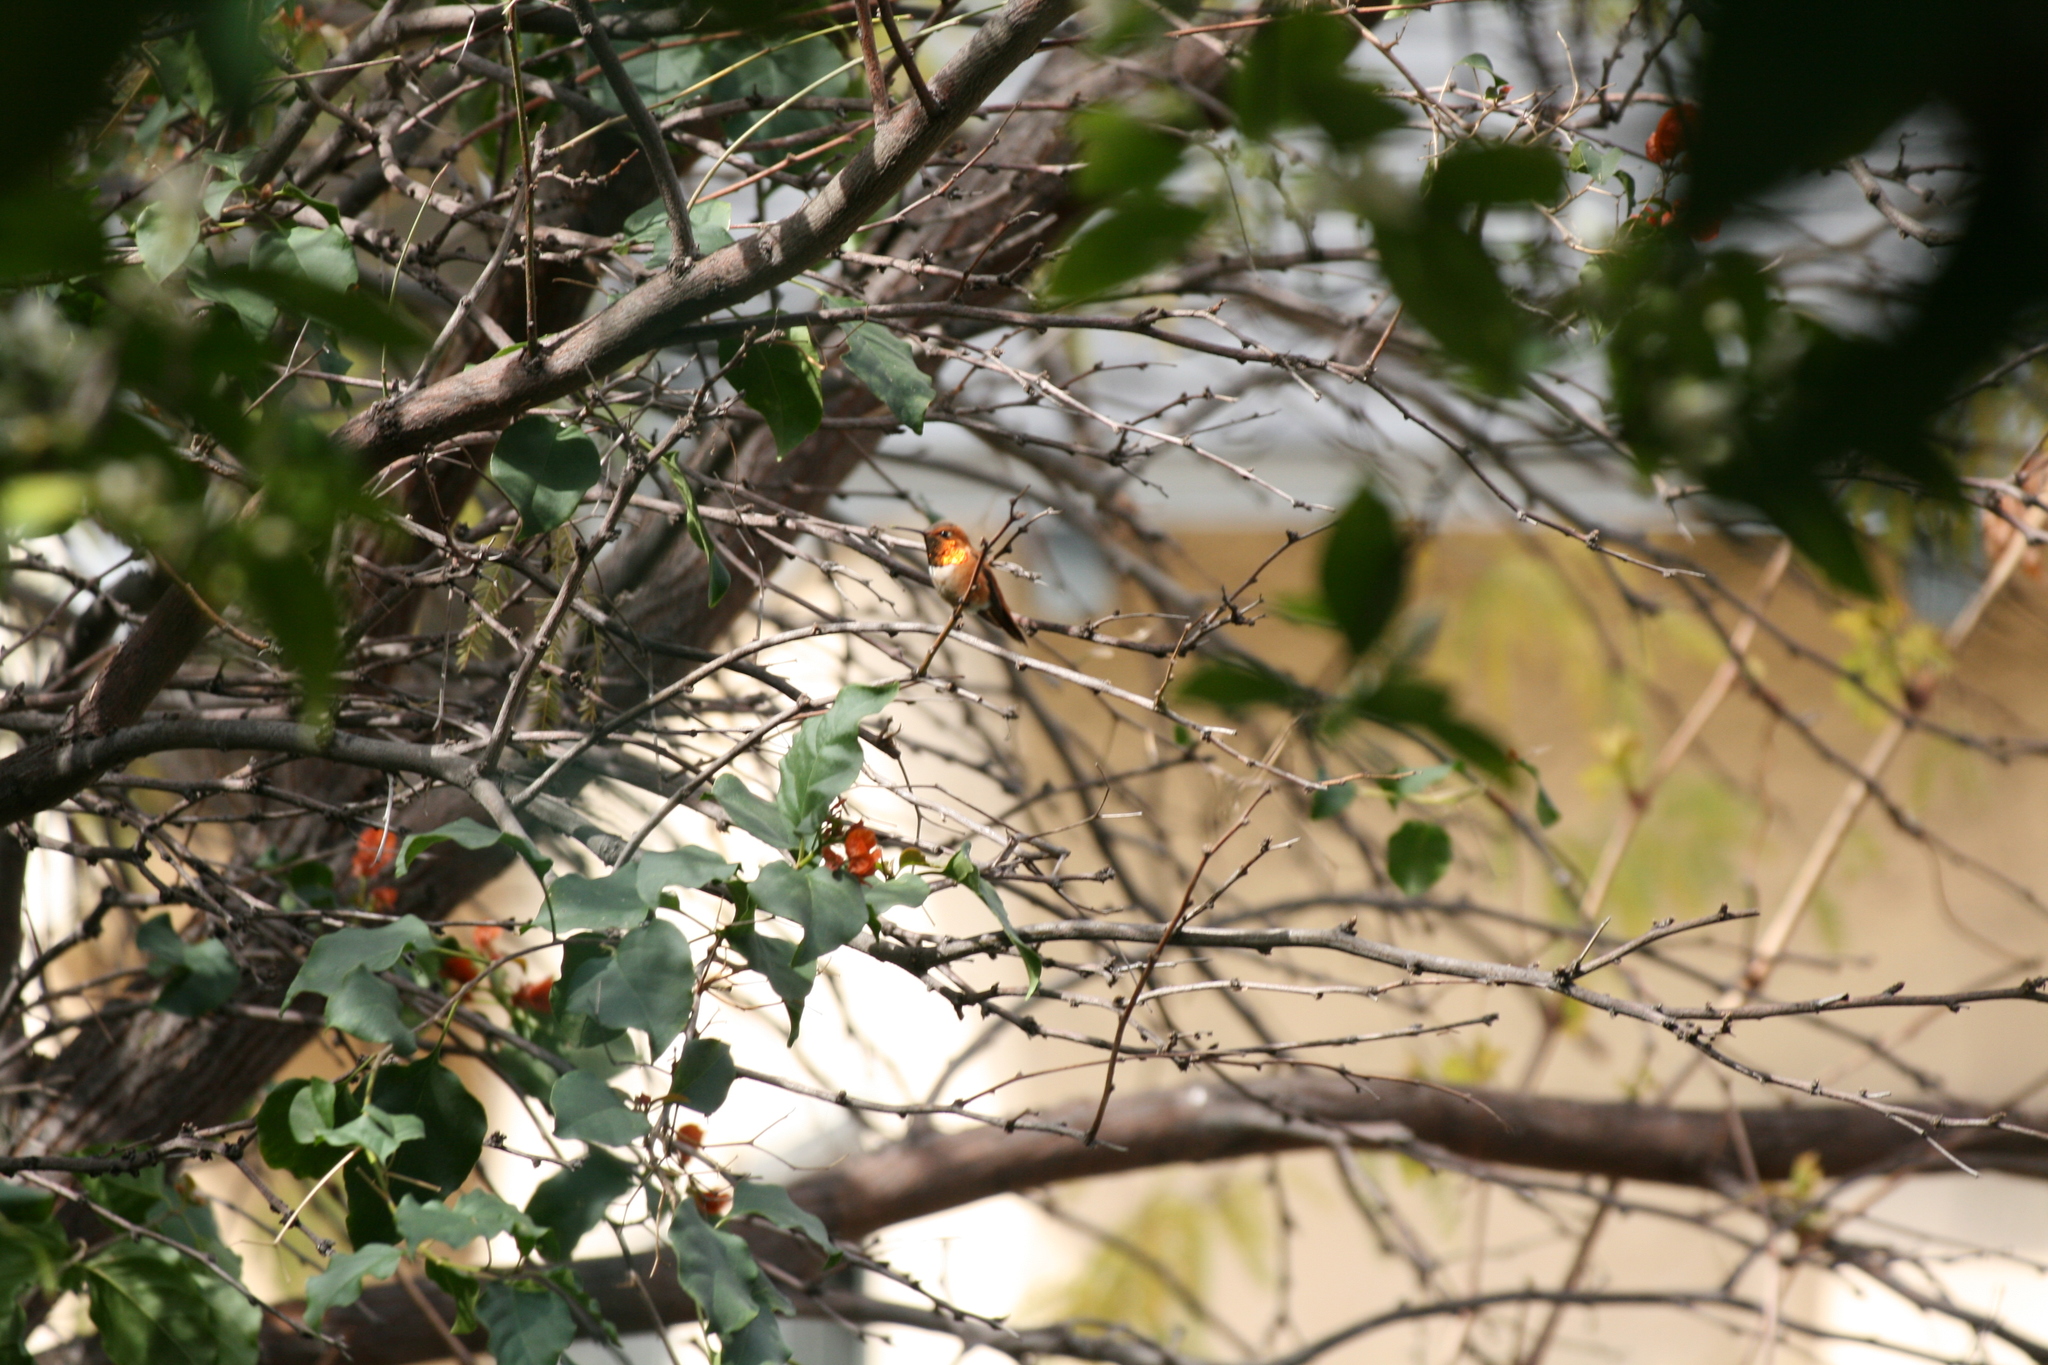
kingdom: Animalia
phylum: Chordata
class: Aves
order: Apodiformes
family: Trochilidae
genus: Selasphorus
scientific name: Selasphorus rufus
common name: Rufous hummingbird
